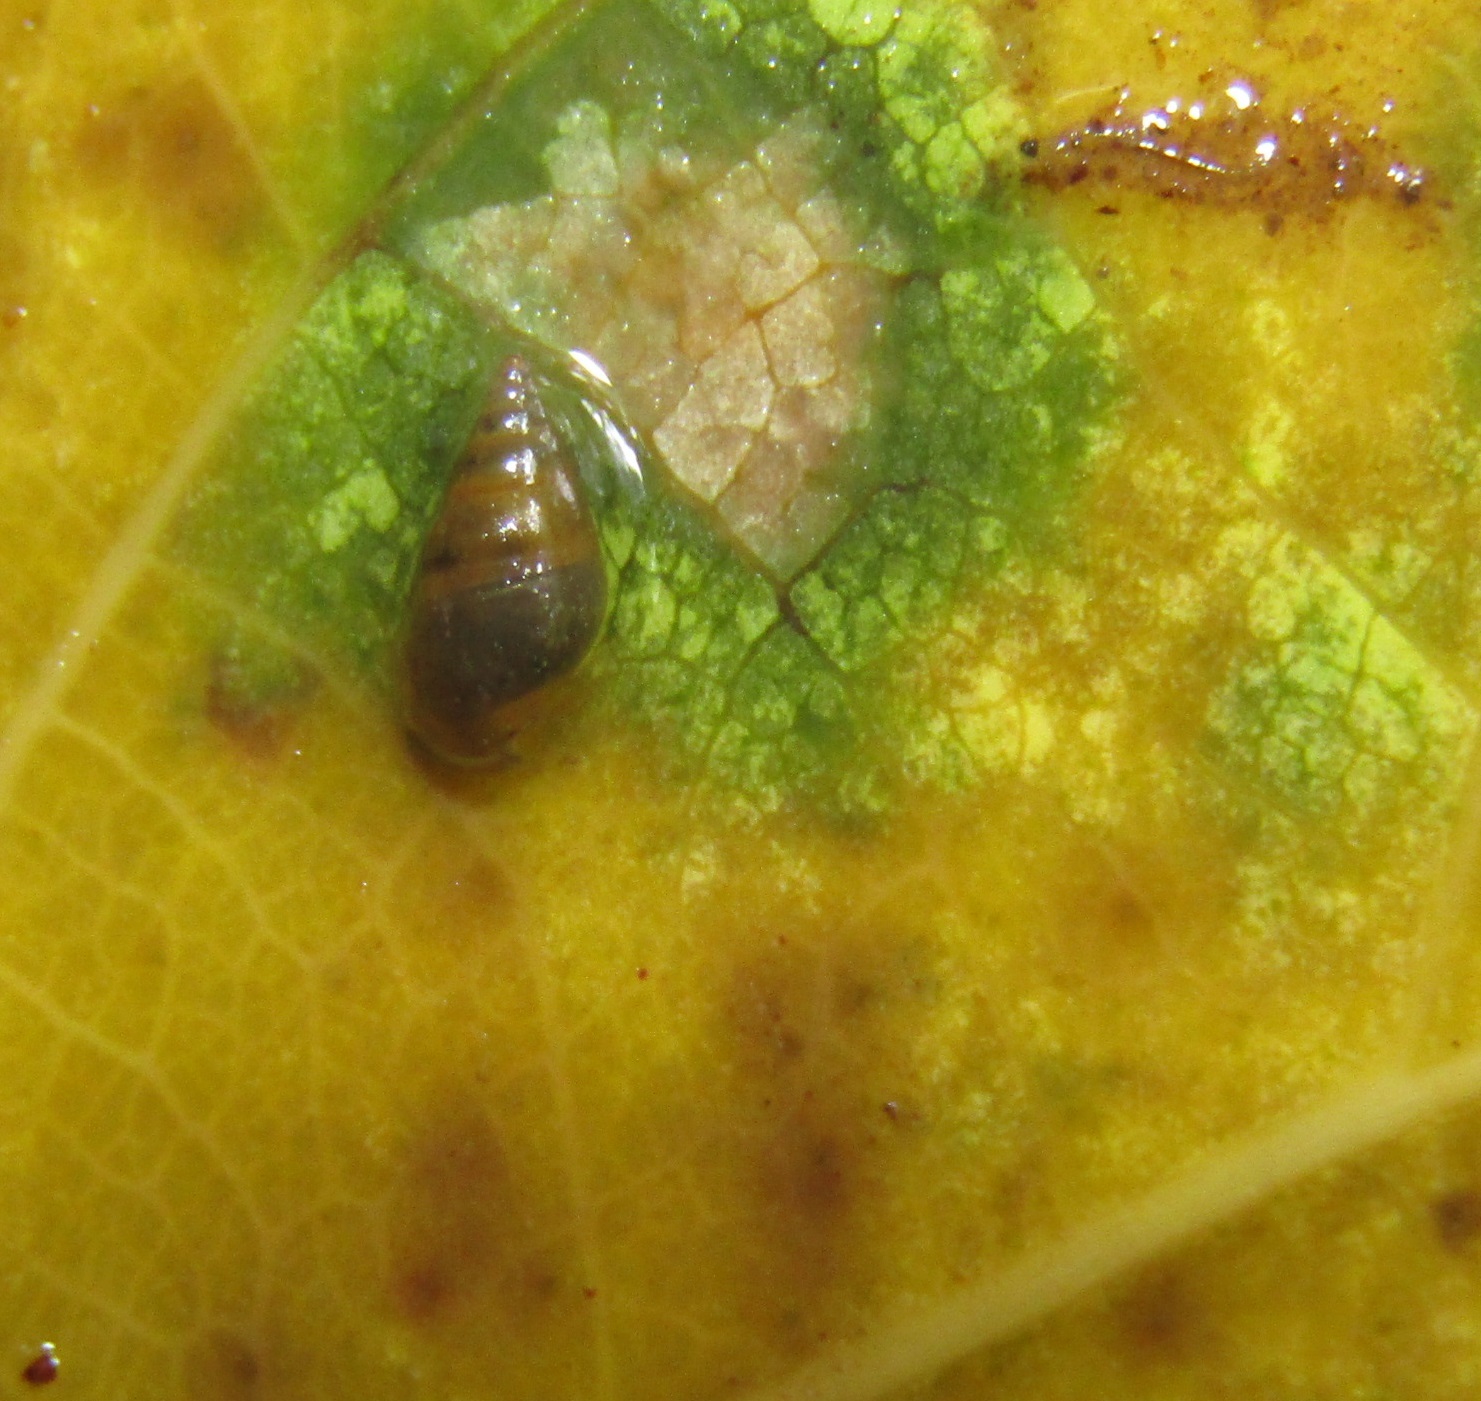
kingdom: Animalia
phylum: Mollusca
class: Gastropoda
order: Littorinimorpha
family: Tateidae
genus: Potamopyrgus
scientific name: Potamopyrgus antipodarum
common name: Jenkins' spire snail
